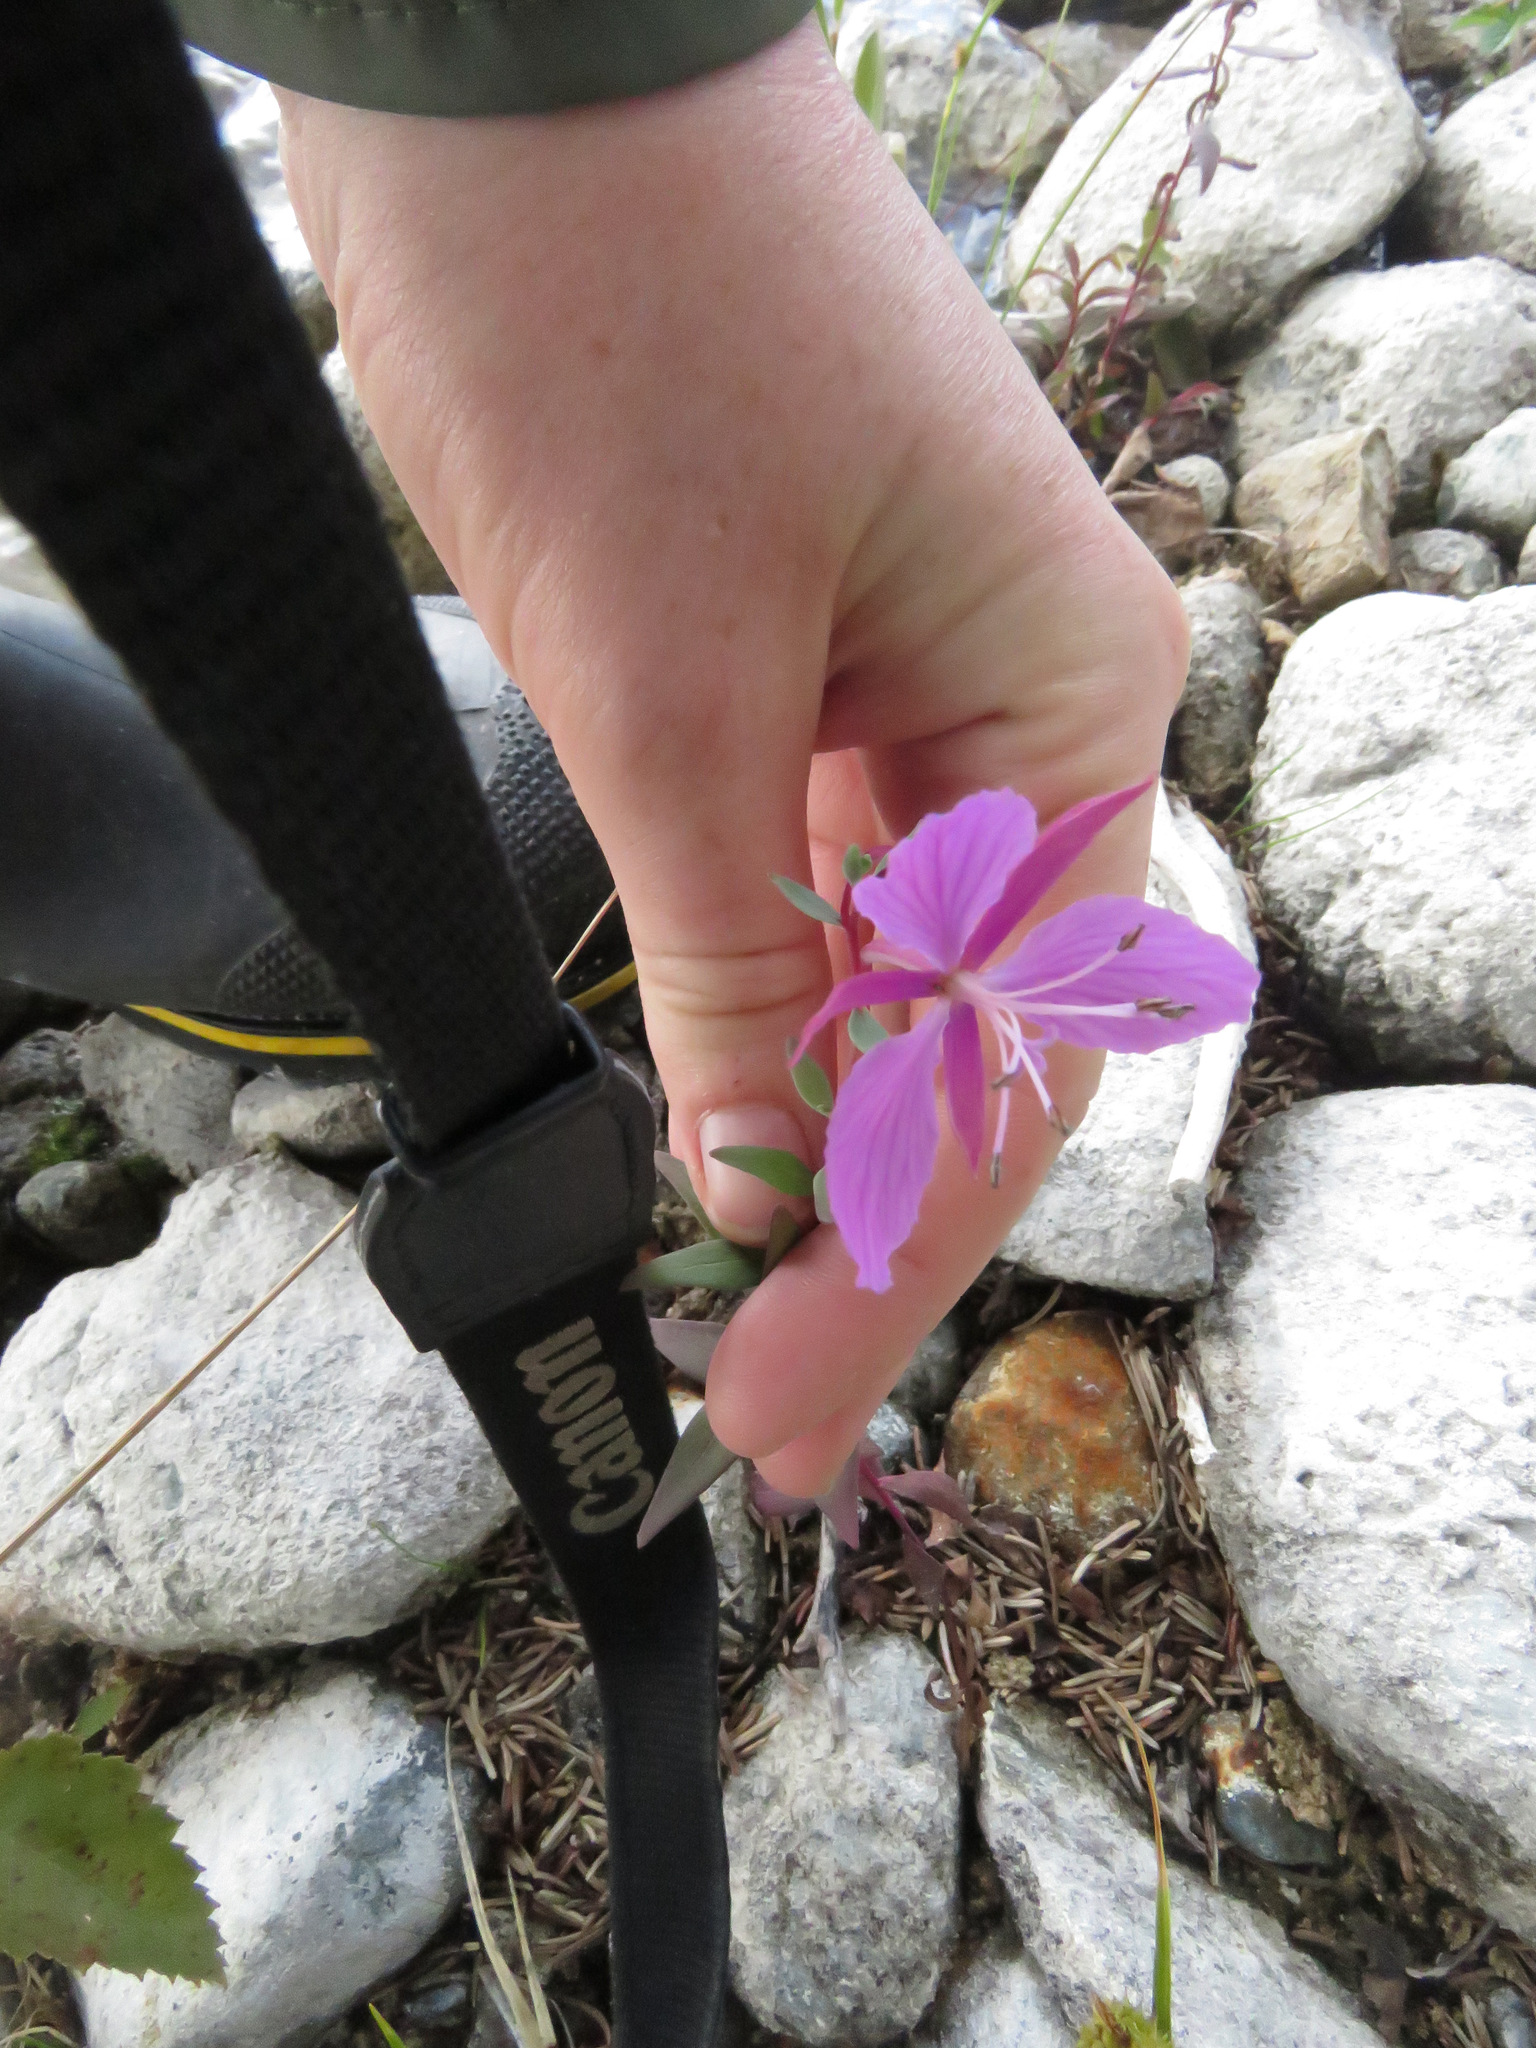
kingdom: Plantae
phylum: Tracheophyta
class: Magnoliopsida
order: Myrtales
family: Onagraceae
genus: Chamaenerion
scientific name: Chamaenerion latifolium
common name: Dwarf fireweed
